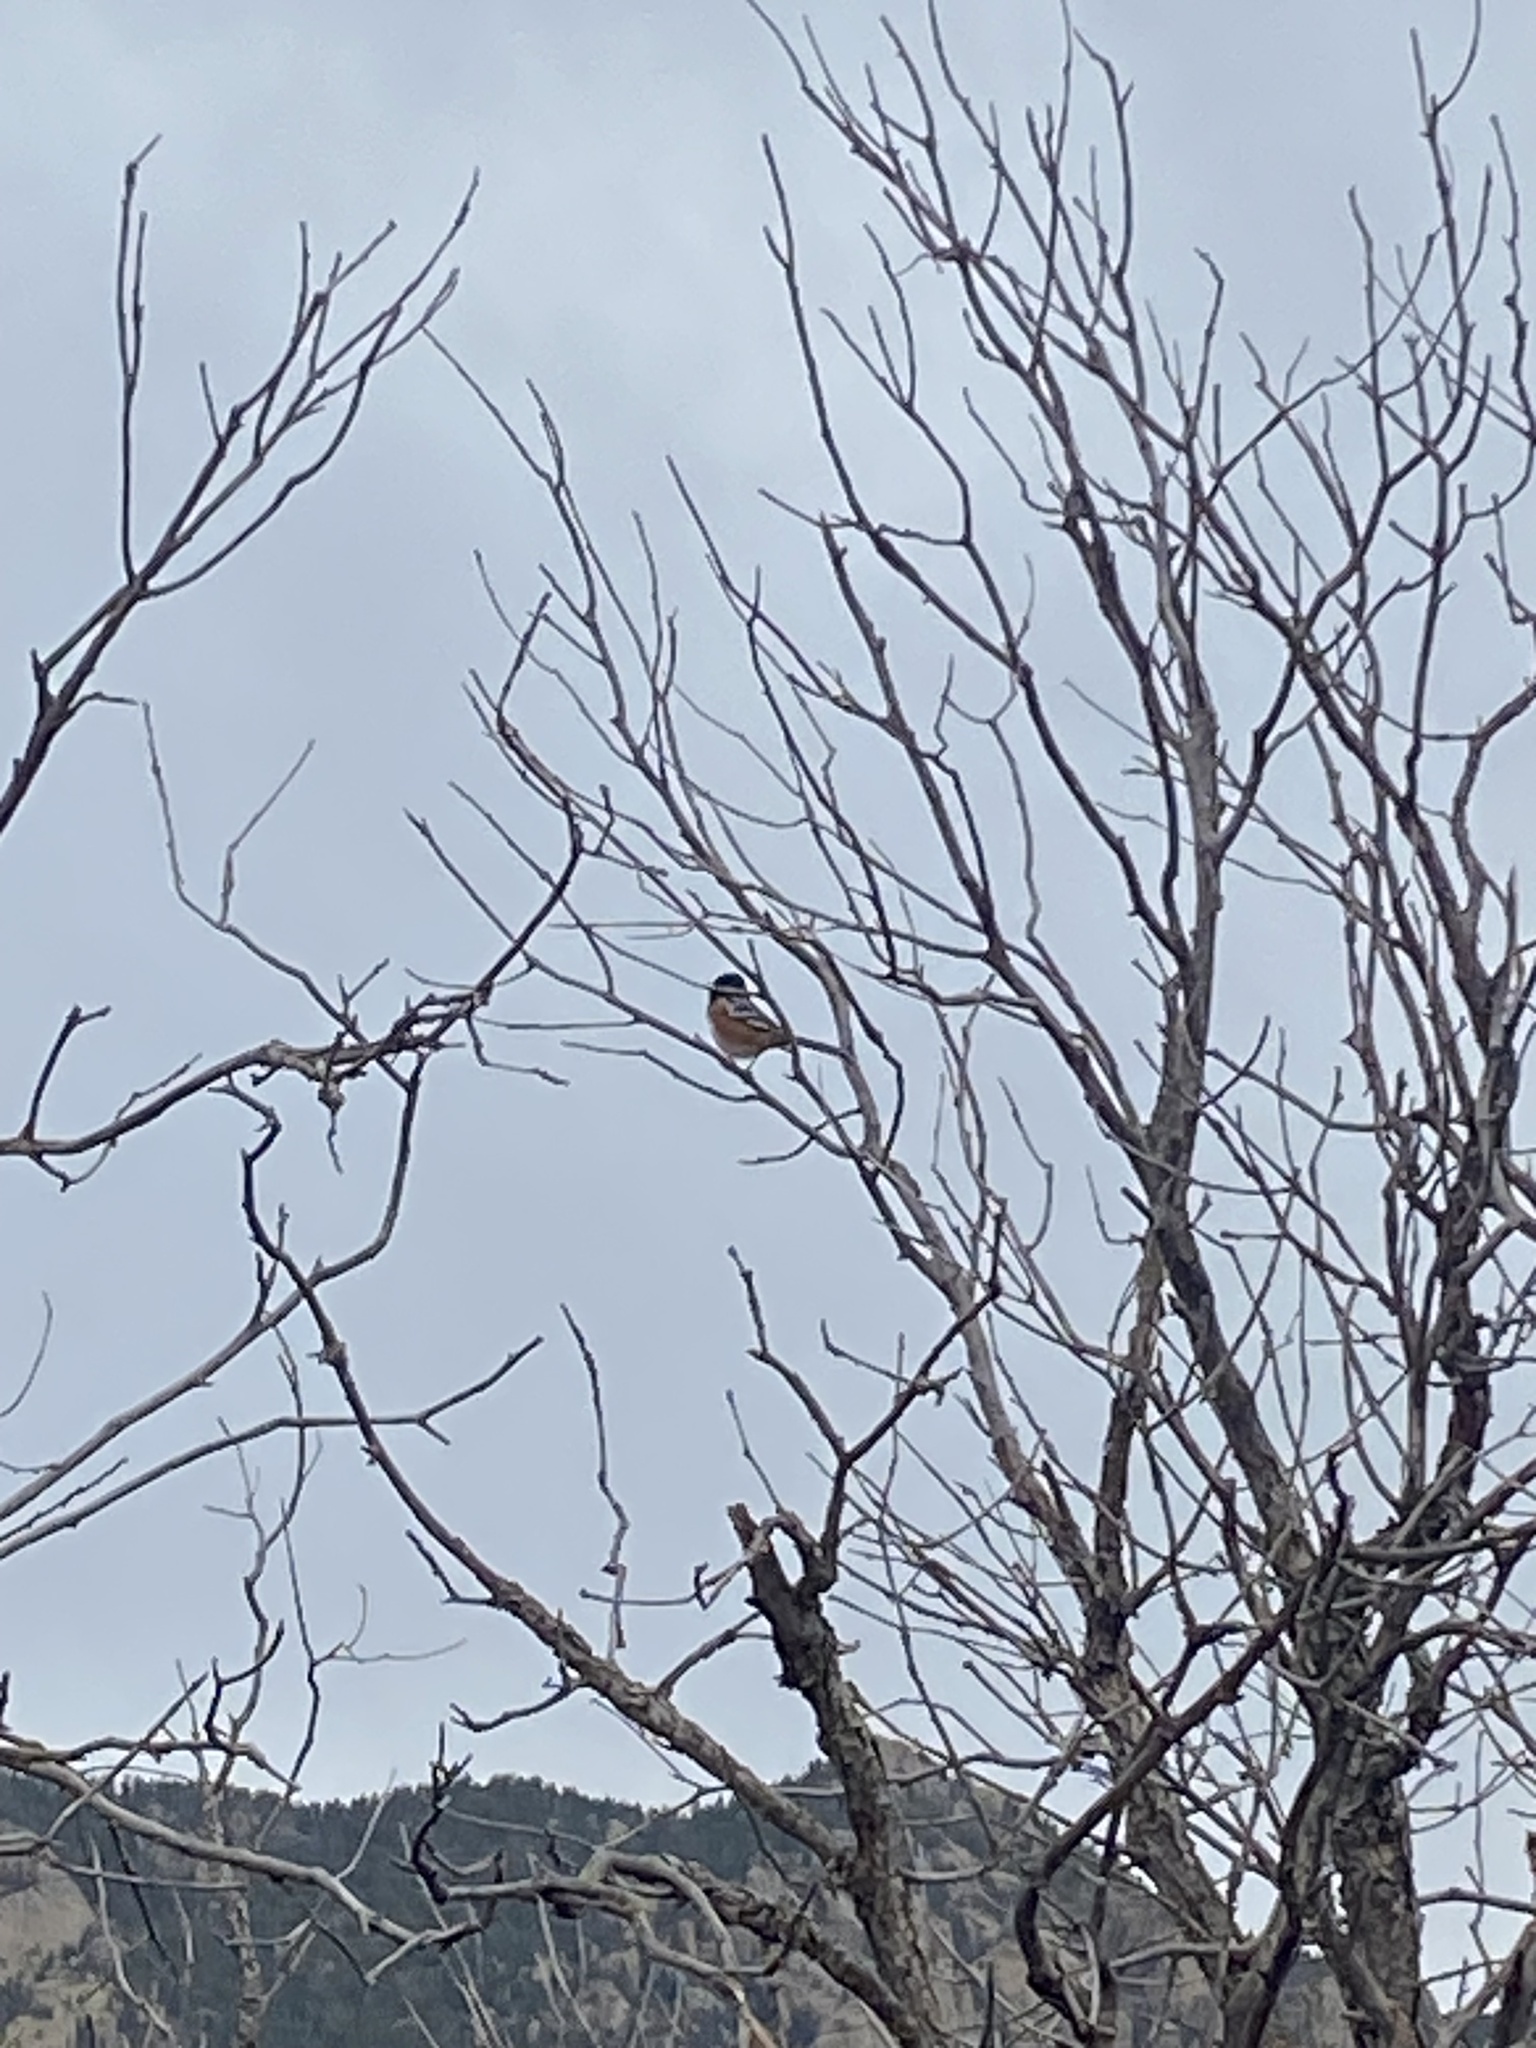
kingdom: Animalia
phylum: Chordata
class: Aves
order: Passeriformes
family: Passerellidae
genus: Pipilo
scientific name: Pipilo maculatus
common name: Spotted towhee
